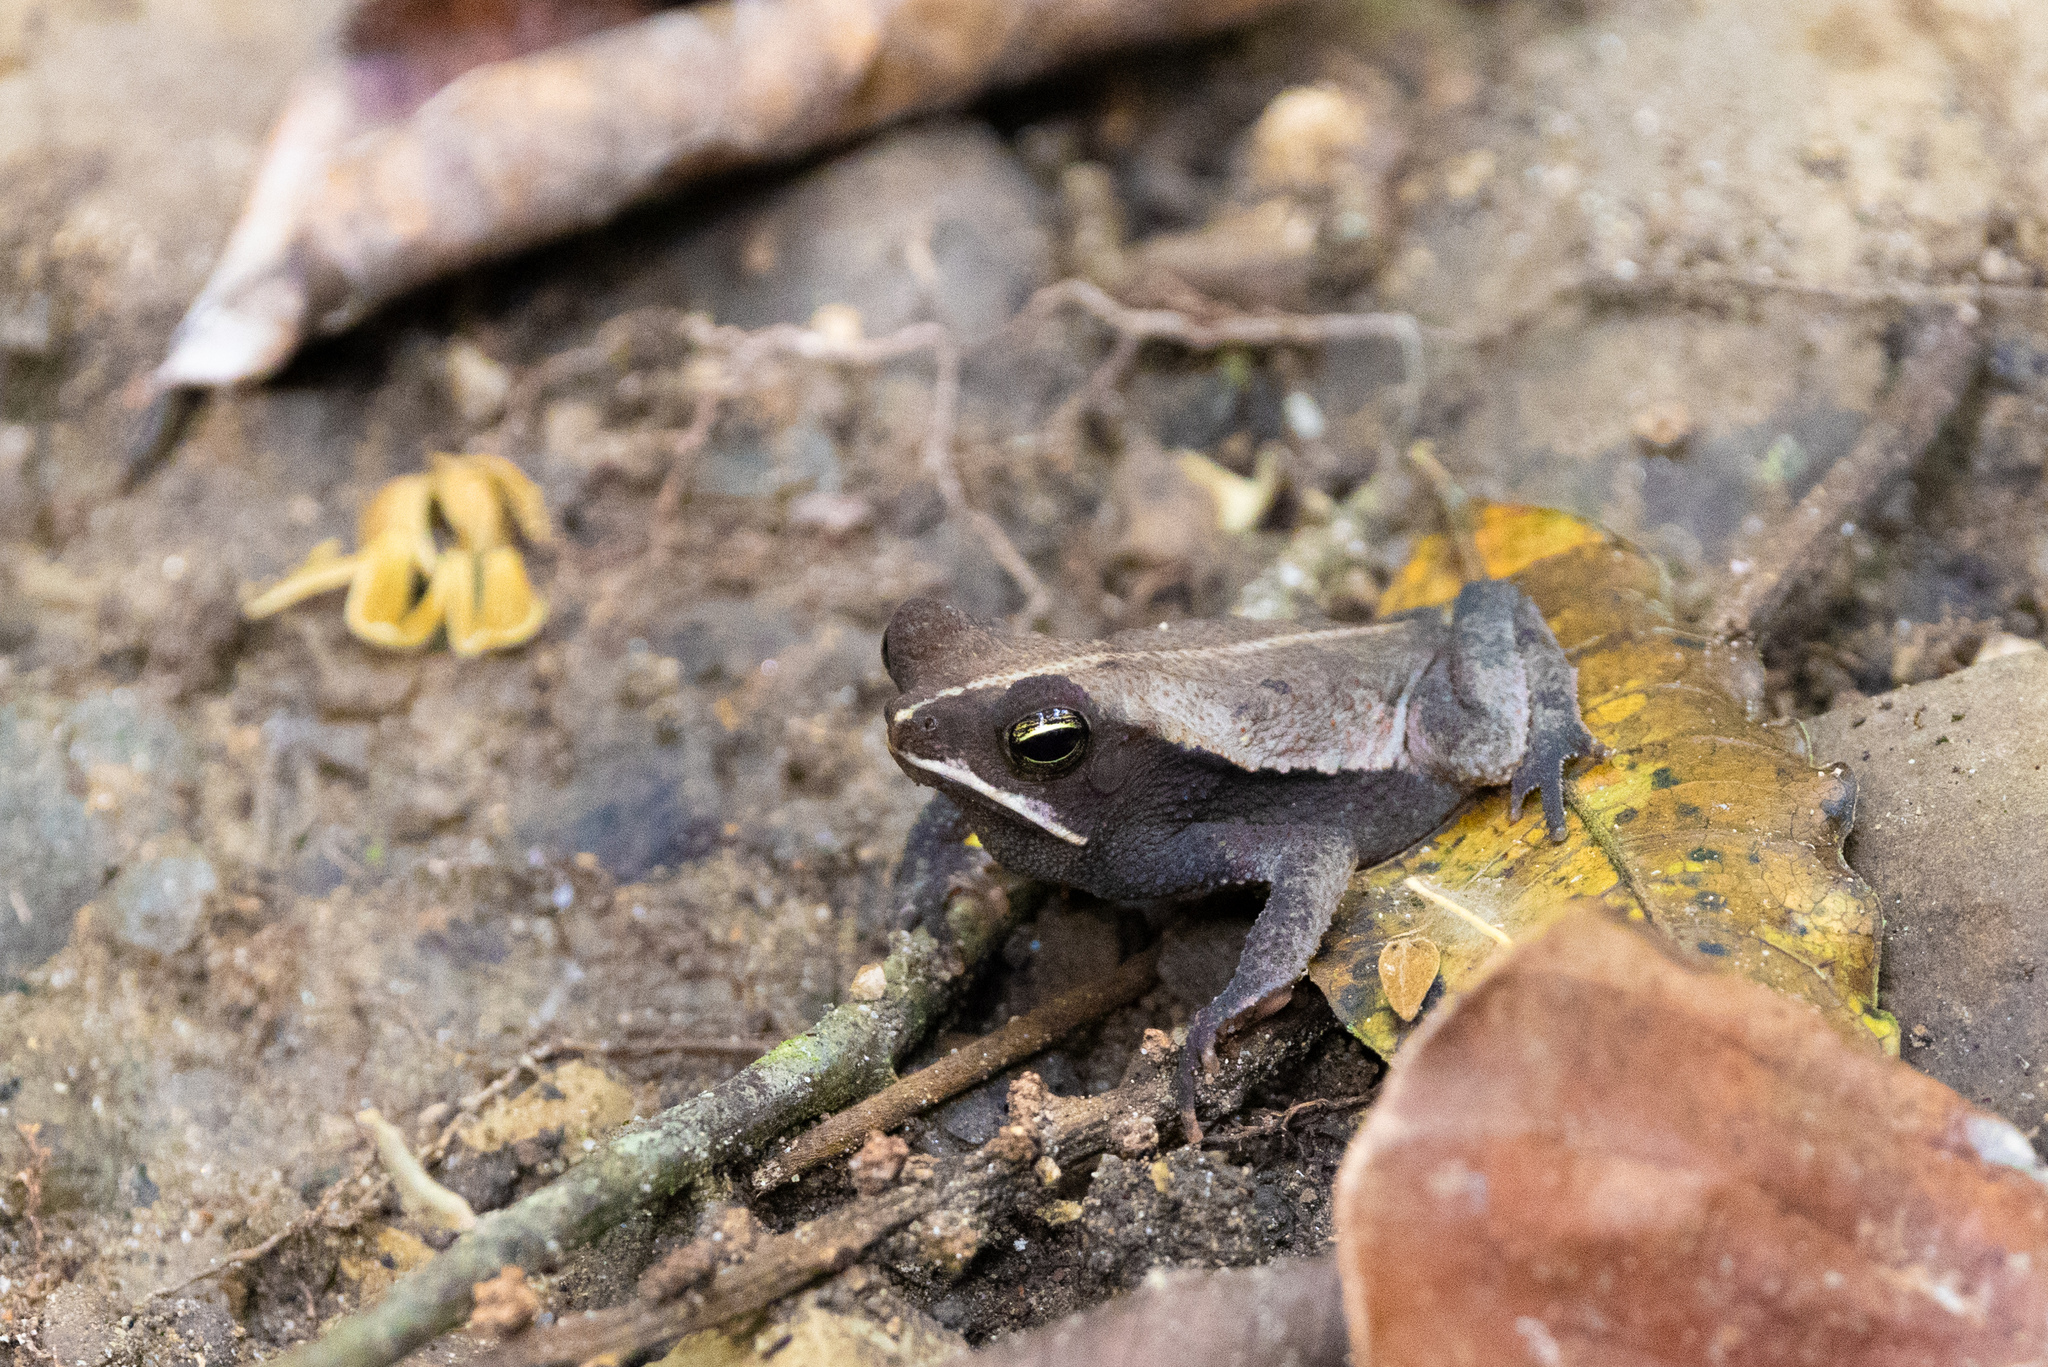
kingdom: Animalia
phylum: Chordata
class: Amphibia
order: Anura
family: Bufonidae
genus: Rhinella
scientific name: Rhinella alata
